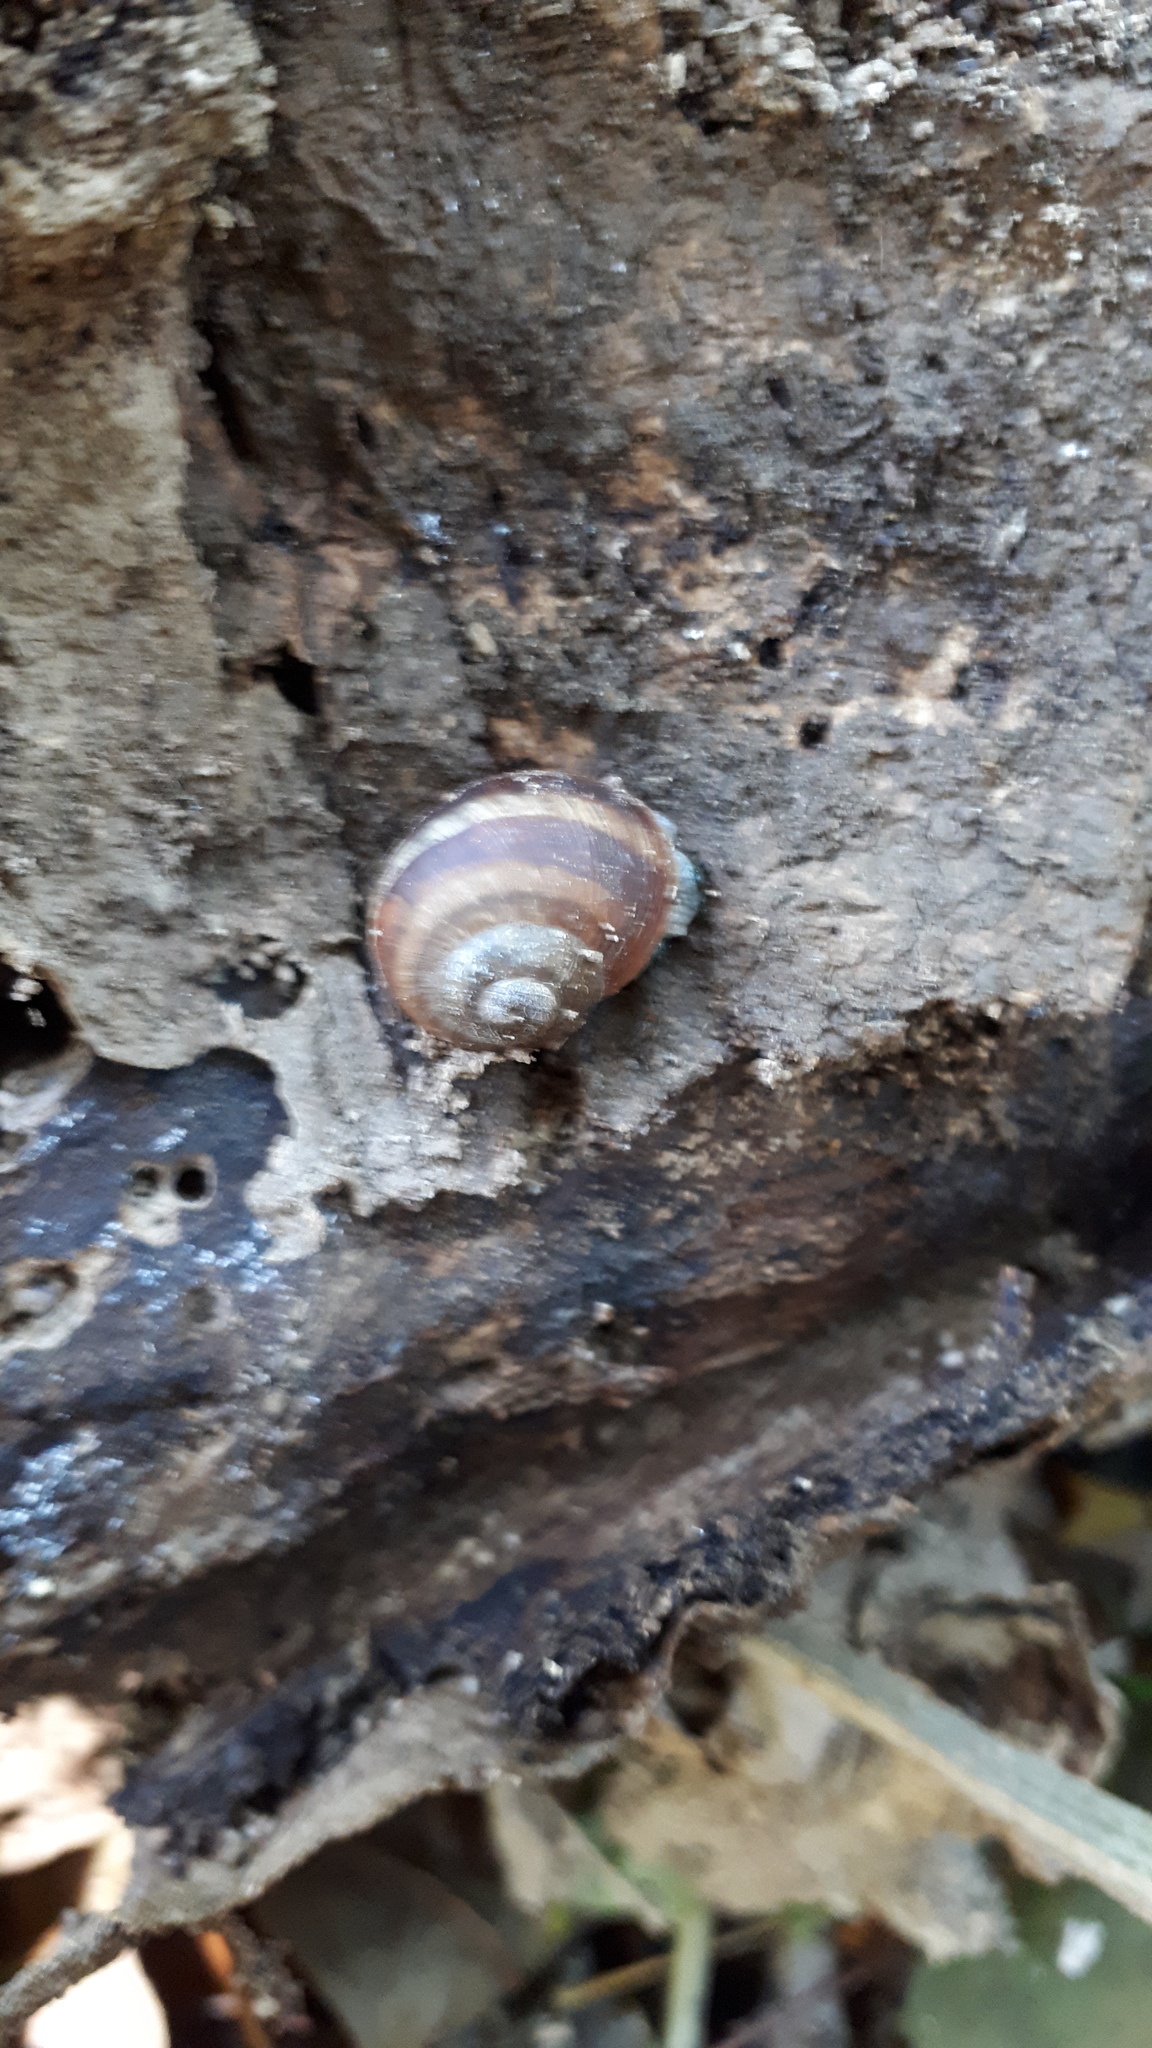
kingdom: Animalia
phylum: Mollusca
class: Gastropoda
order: Stylommatophora
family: Helicidae
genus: Helix
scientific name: Helix pomatia
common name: Roman snail
